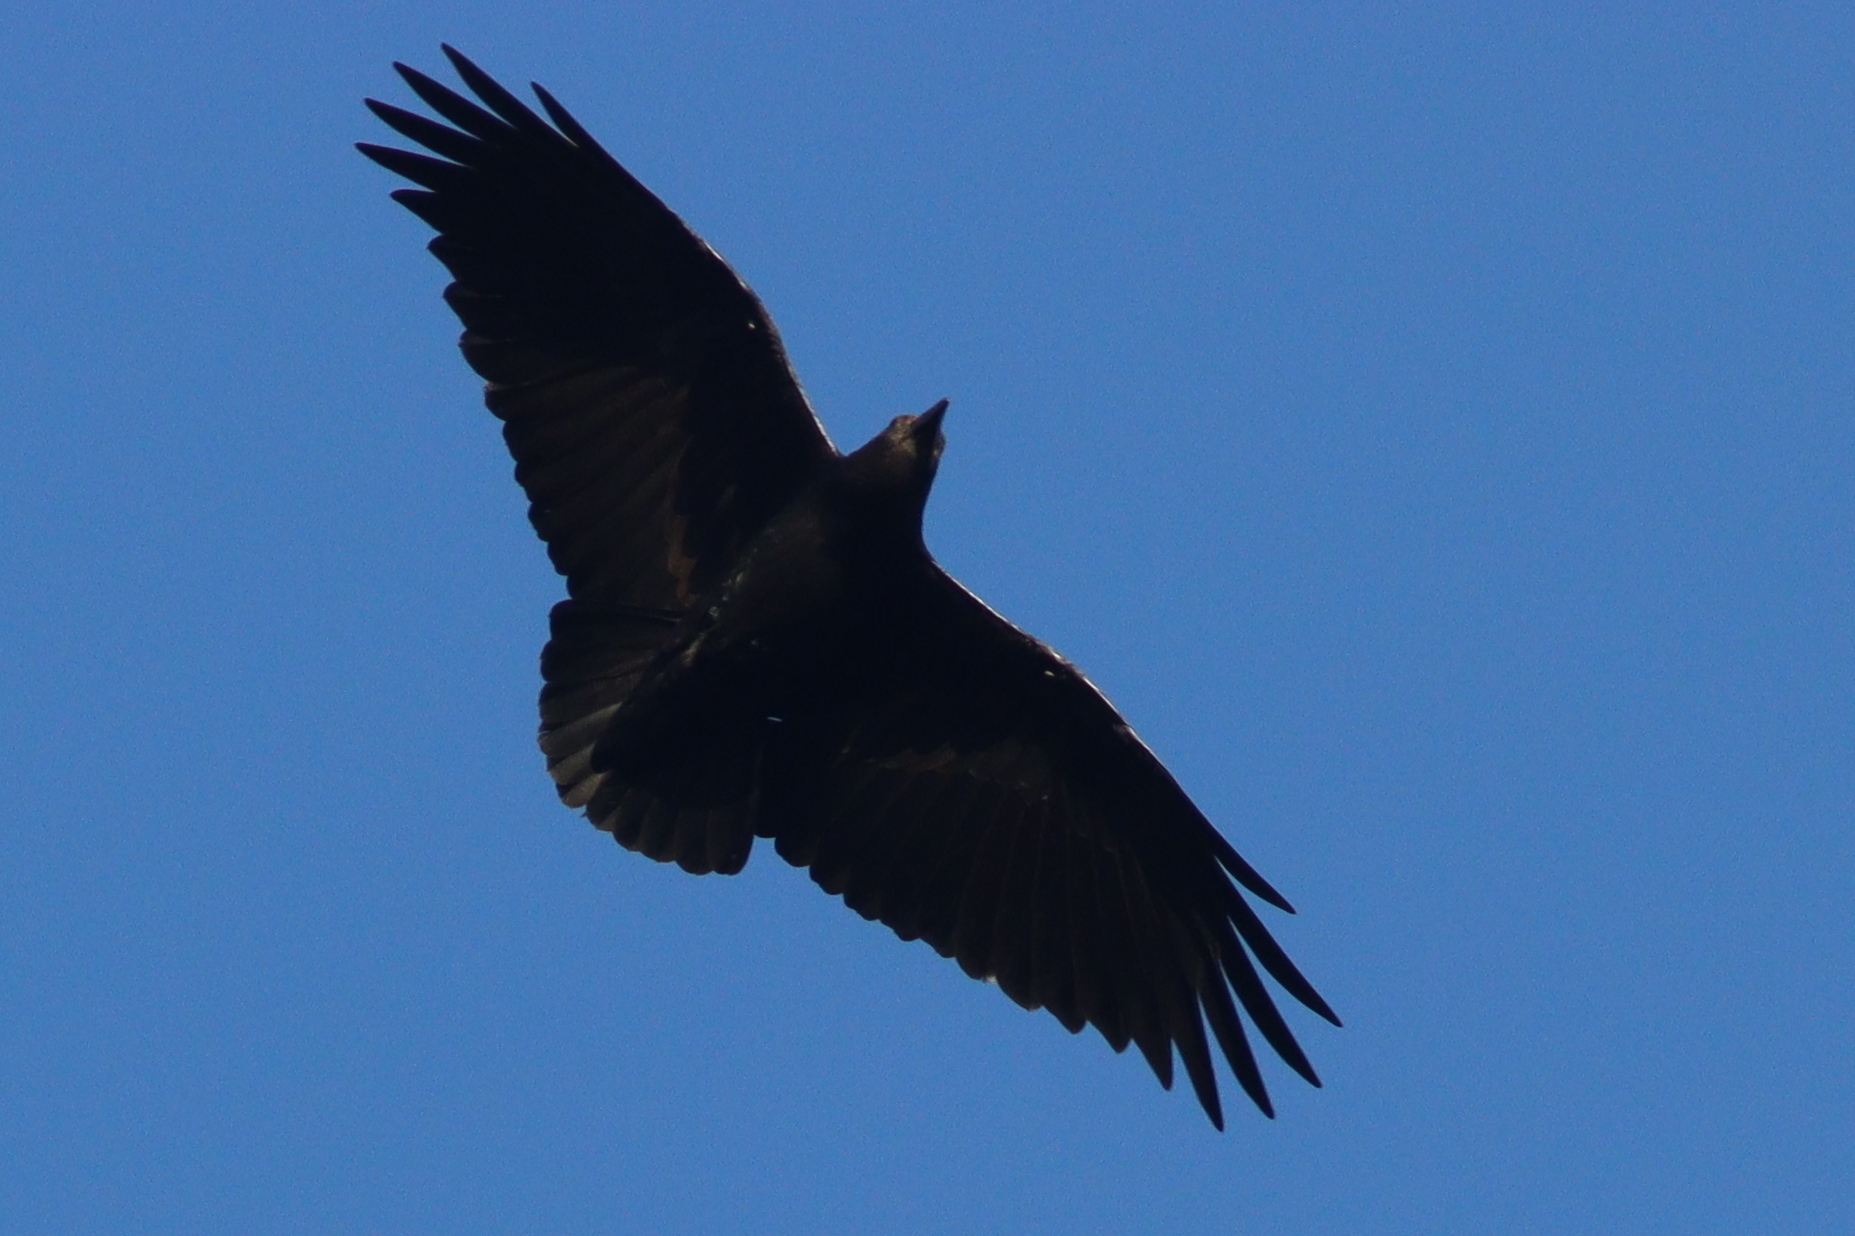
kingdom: Animalia
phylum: Chordata
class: Aves
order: Passeriformes
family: Corvidae
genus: Corvus
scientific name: Corvus rhipidurus
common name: Fan-tailed raven
